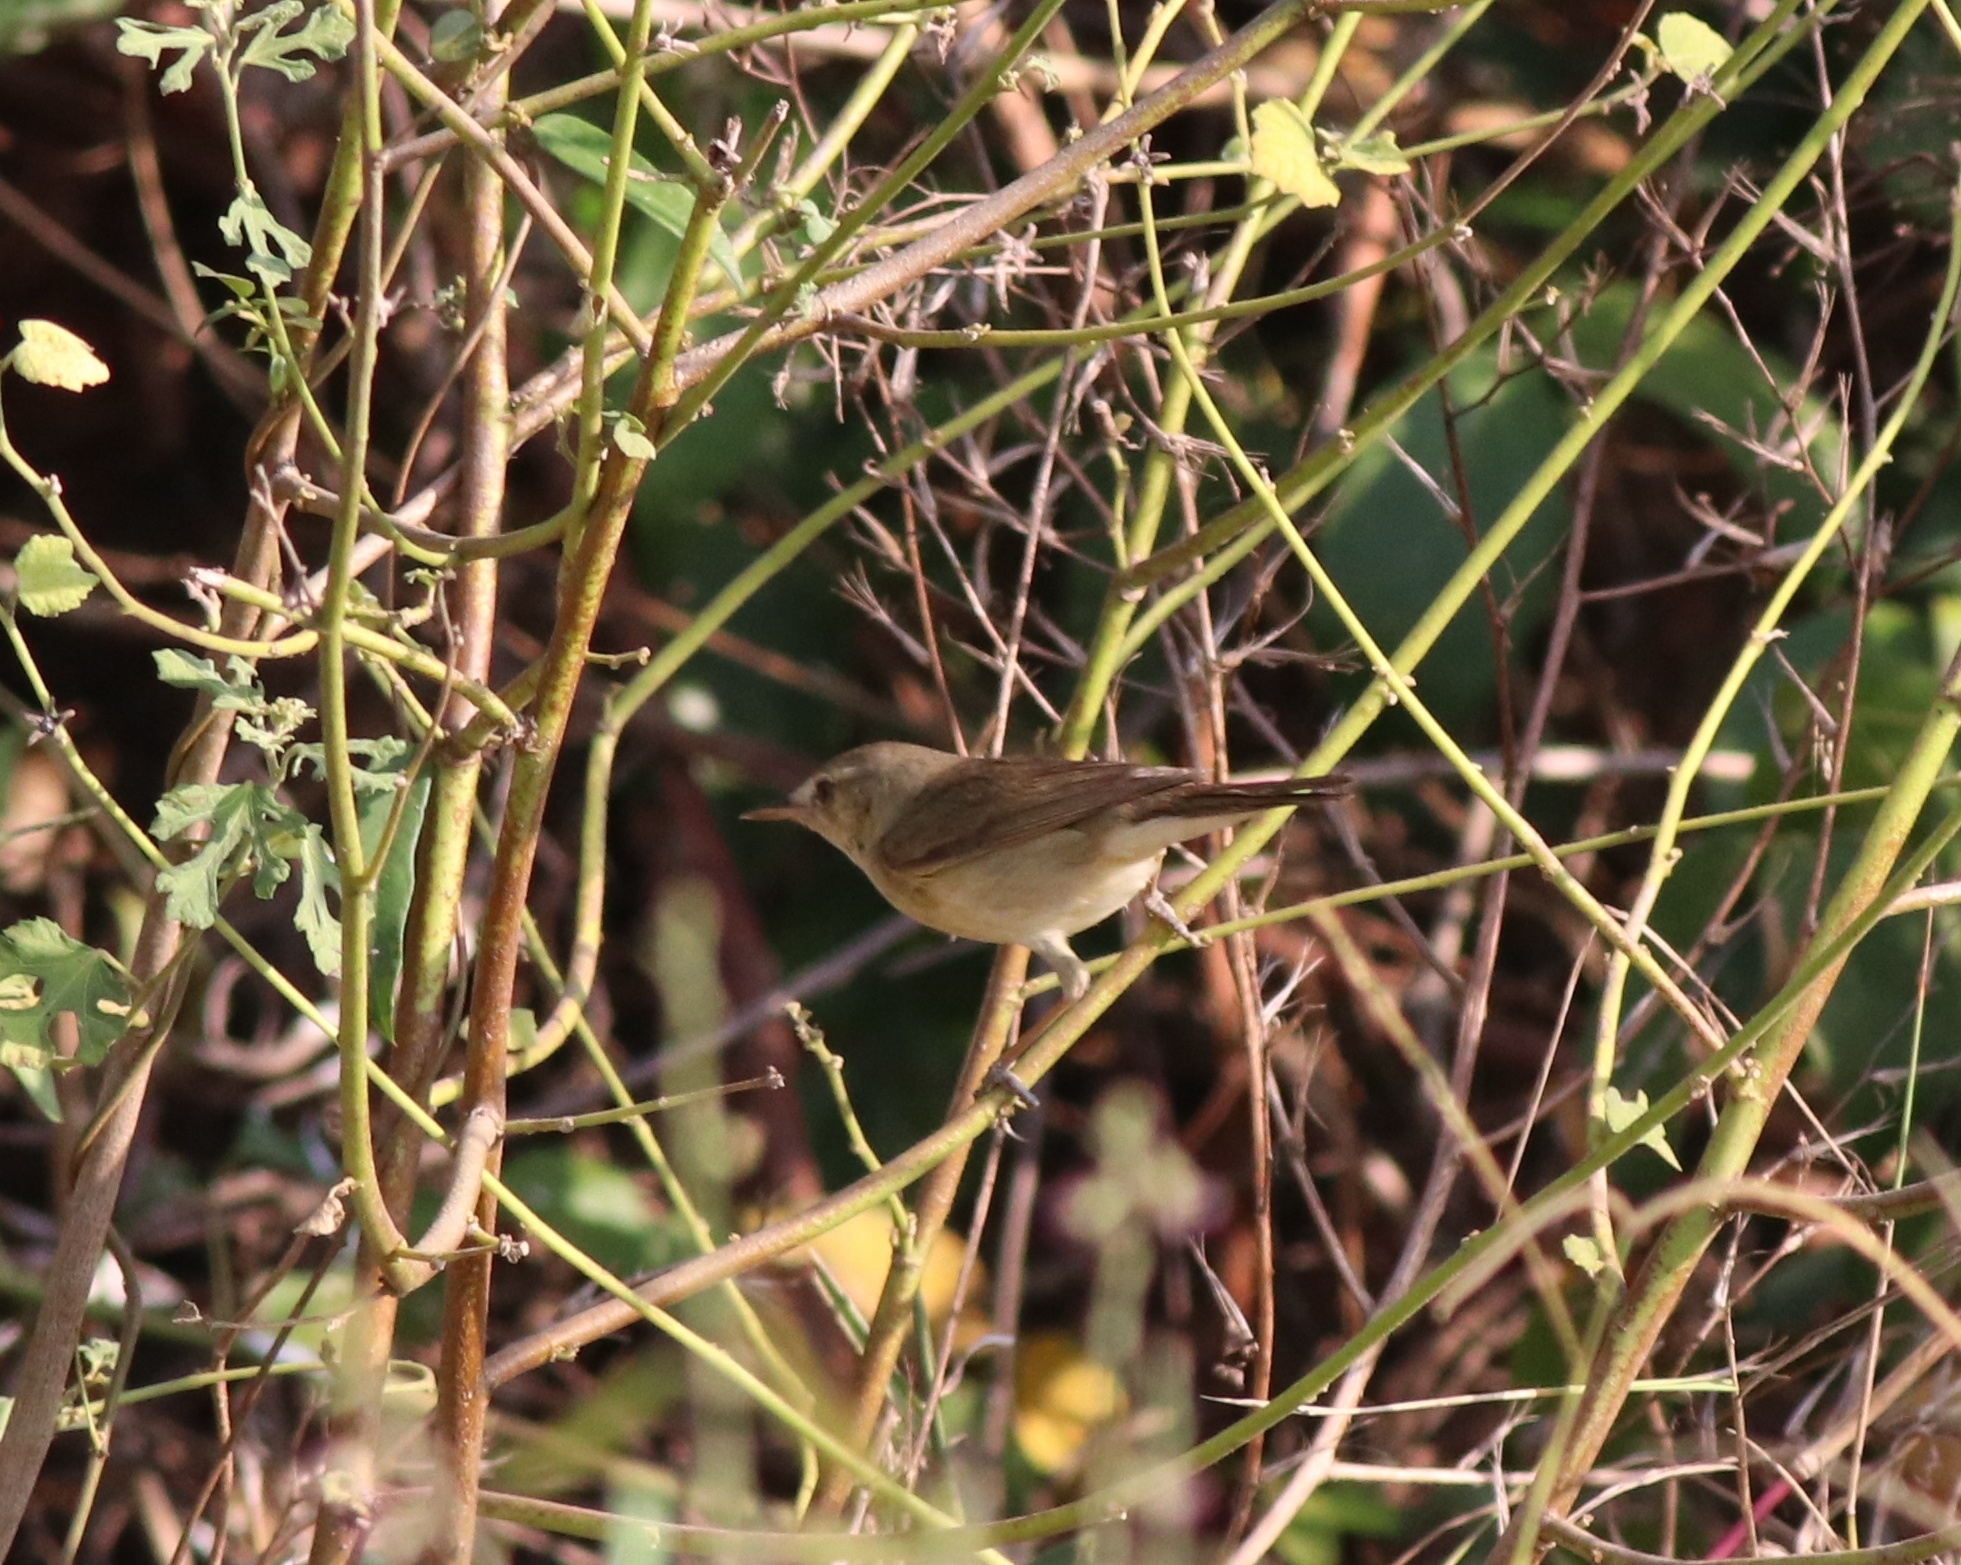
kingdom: Animalia
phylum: Chordata
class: Aves
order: Passeriformes
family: Acrocephalidae
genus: Acrocephalus
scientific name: Acrocephalus dumetorum
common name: Blyth's reed warbler
